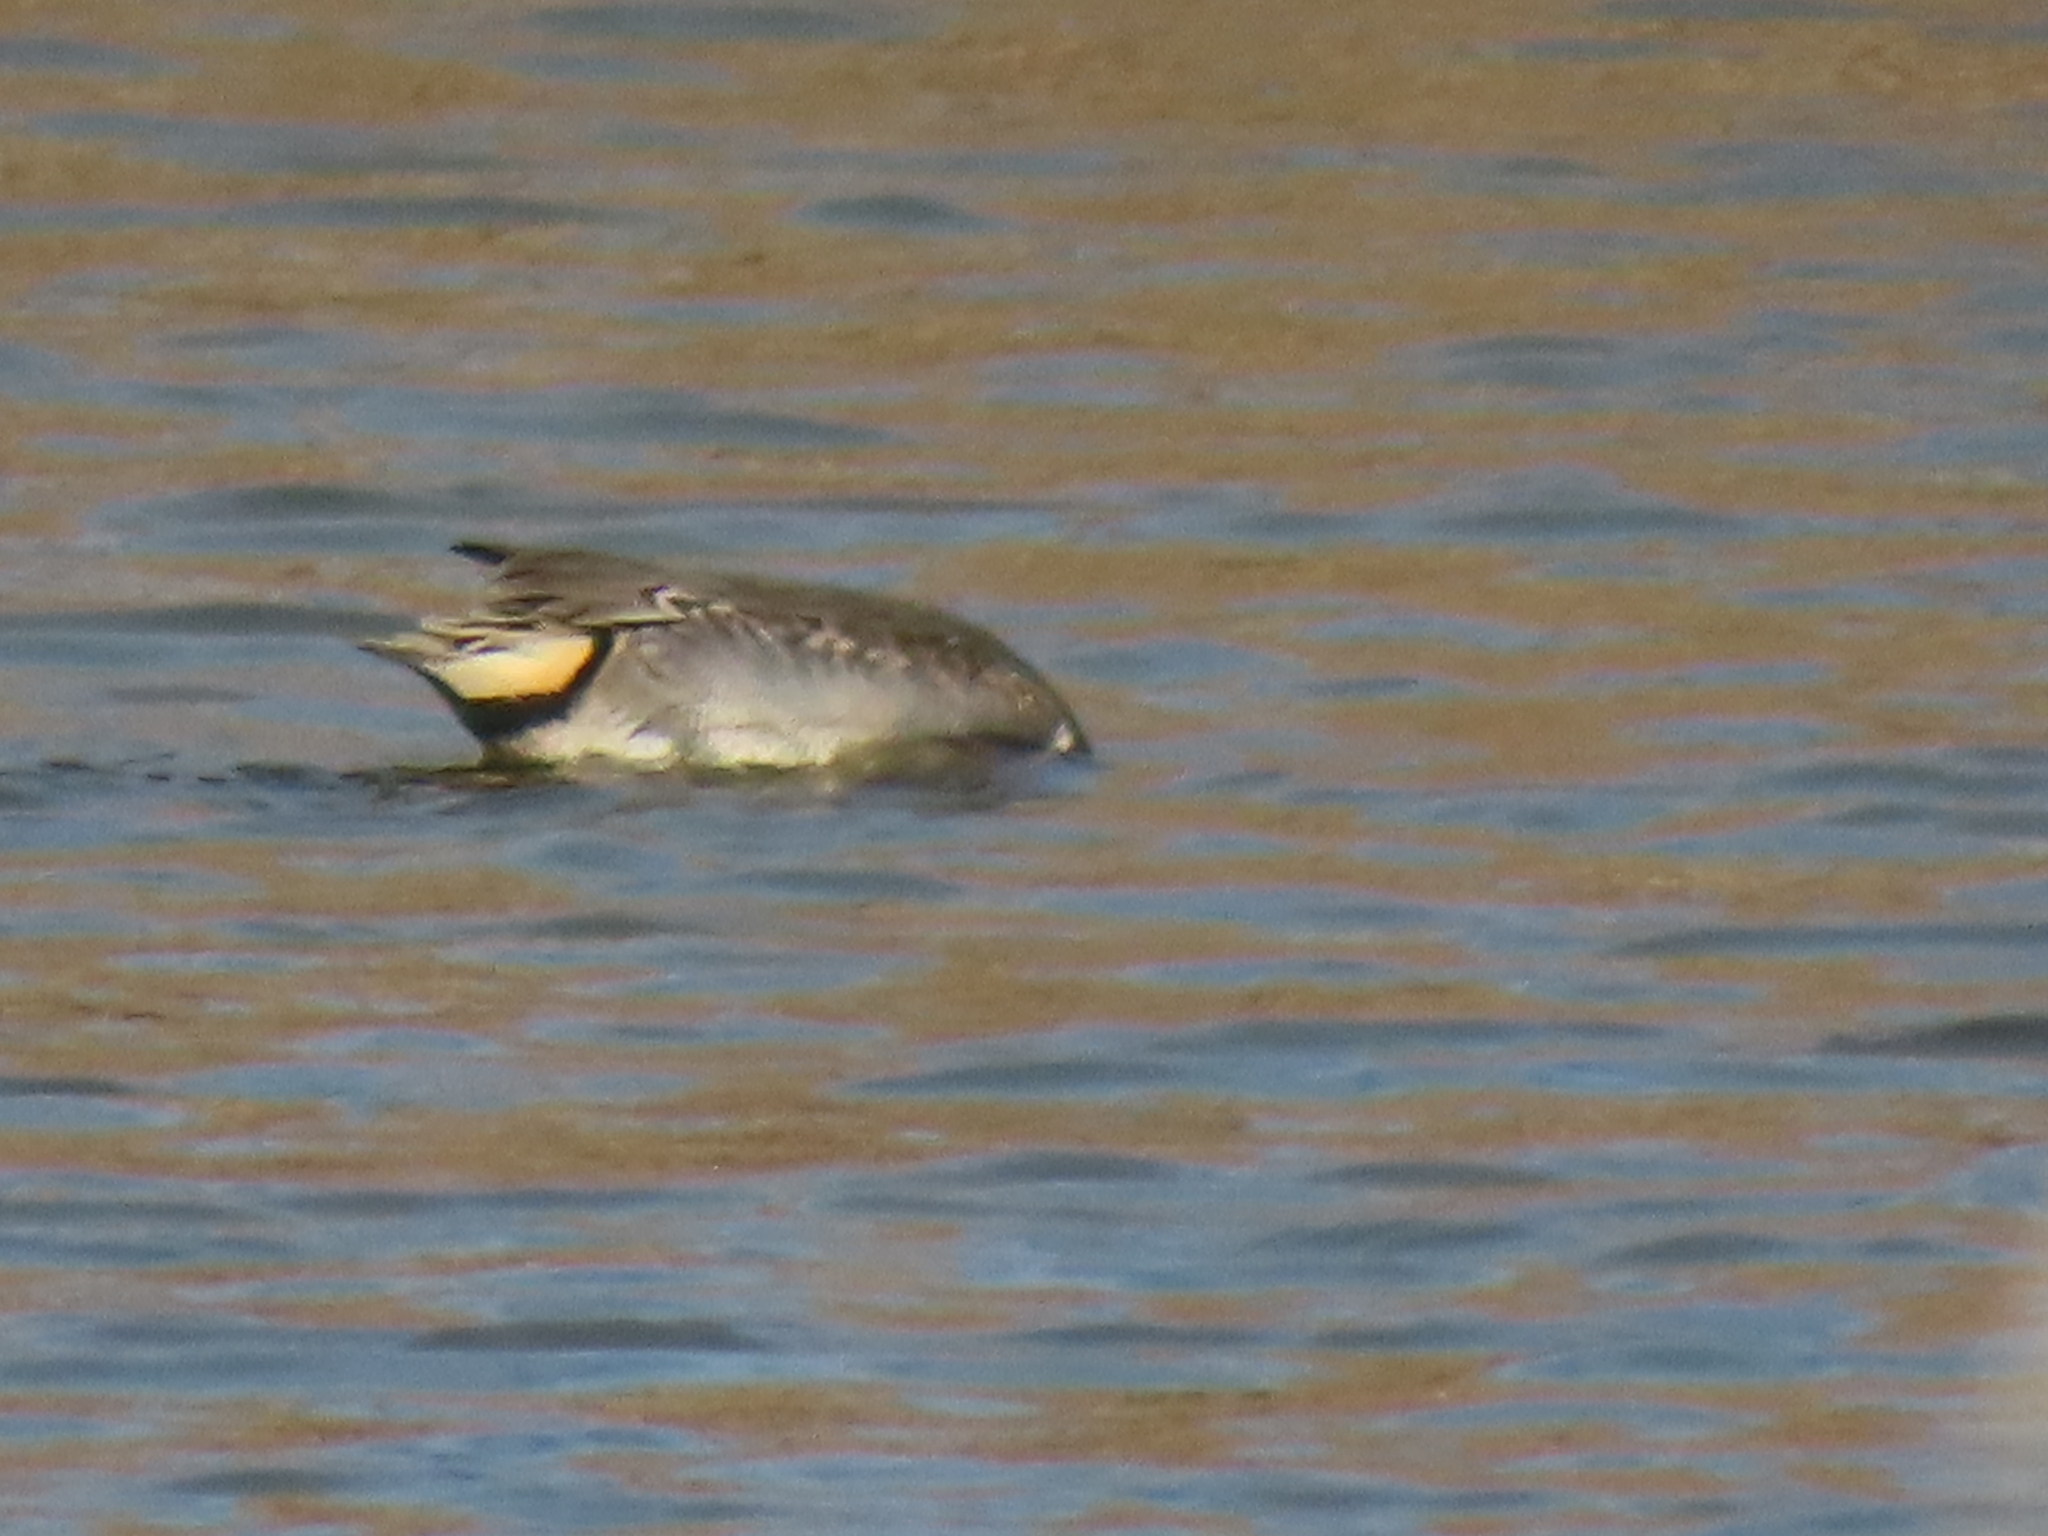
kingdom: Animalia
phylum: Chordata
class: Aves
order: Anseriformes
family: Anatidae
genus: Anas
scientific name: Anas crecca
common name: Eurasian teal
